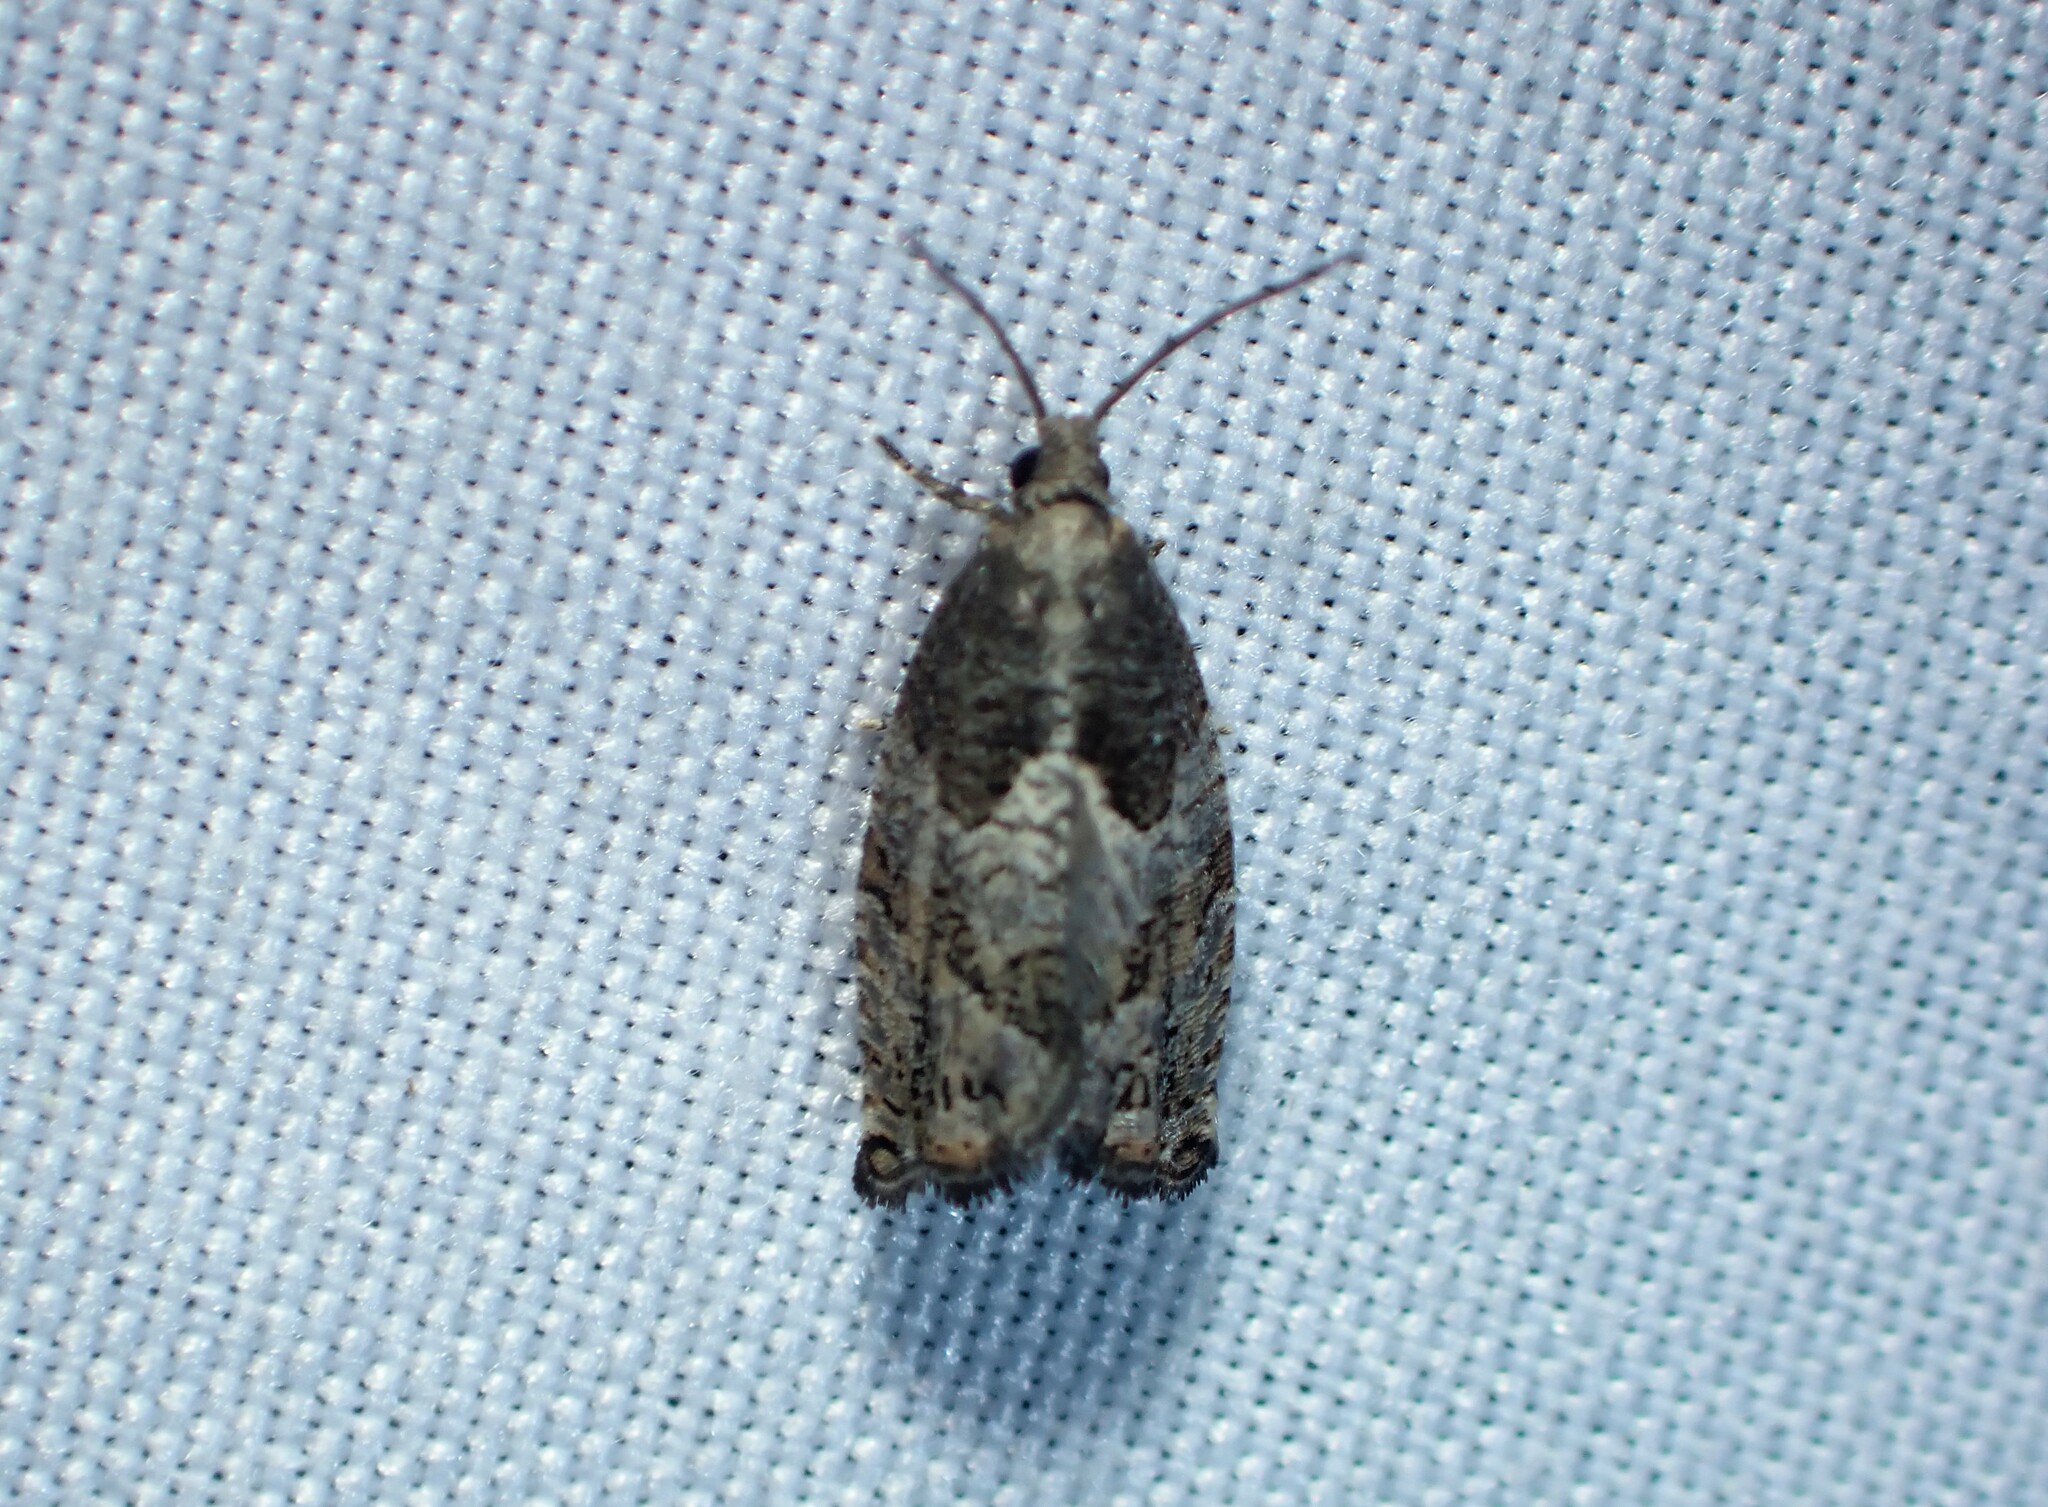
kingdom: Animalia
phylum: Arthropoda
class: Insecta
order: Lepidoptera
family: Tortricidae
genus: Gypsonoma
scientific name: Gypsonoma salicicolana
